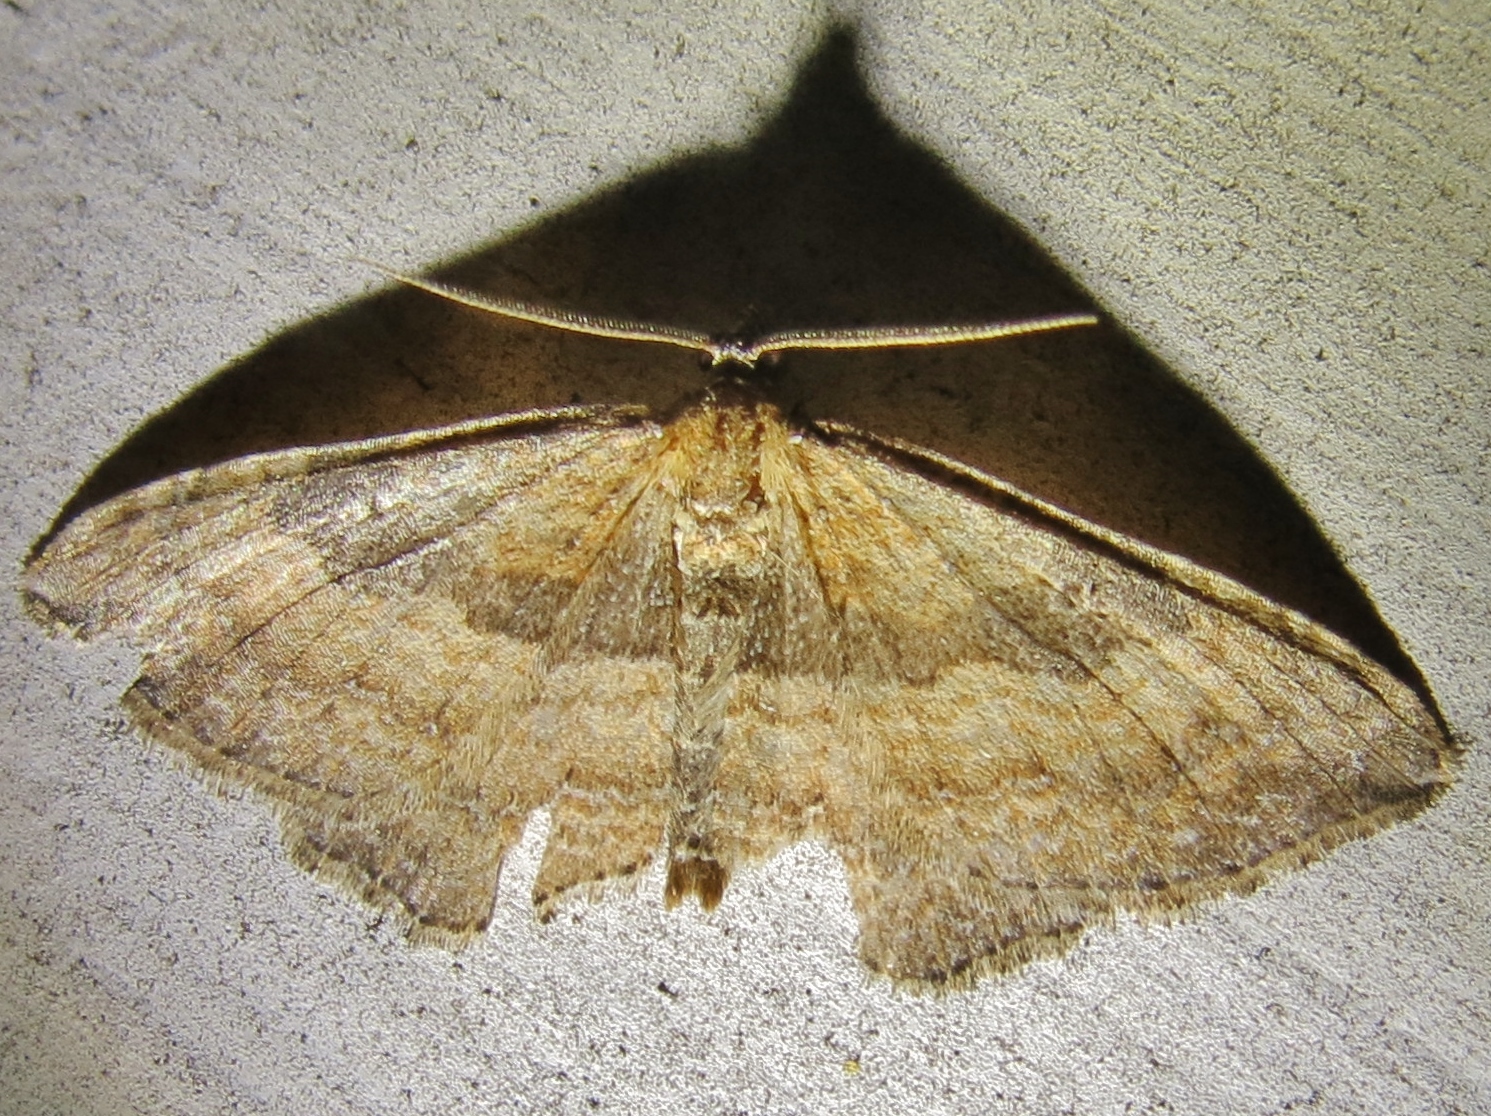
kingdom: Animalia
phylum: Arthropoda
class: Insecta
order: Lepidoptera
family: Geometridae
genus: Orthonama
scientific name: Orthonama obstipata
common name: The gem
